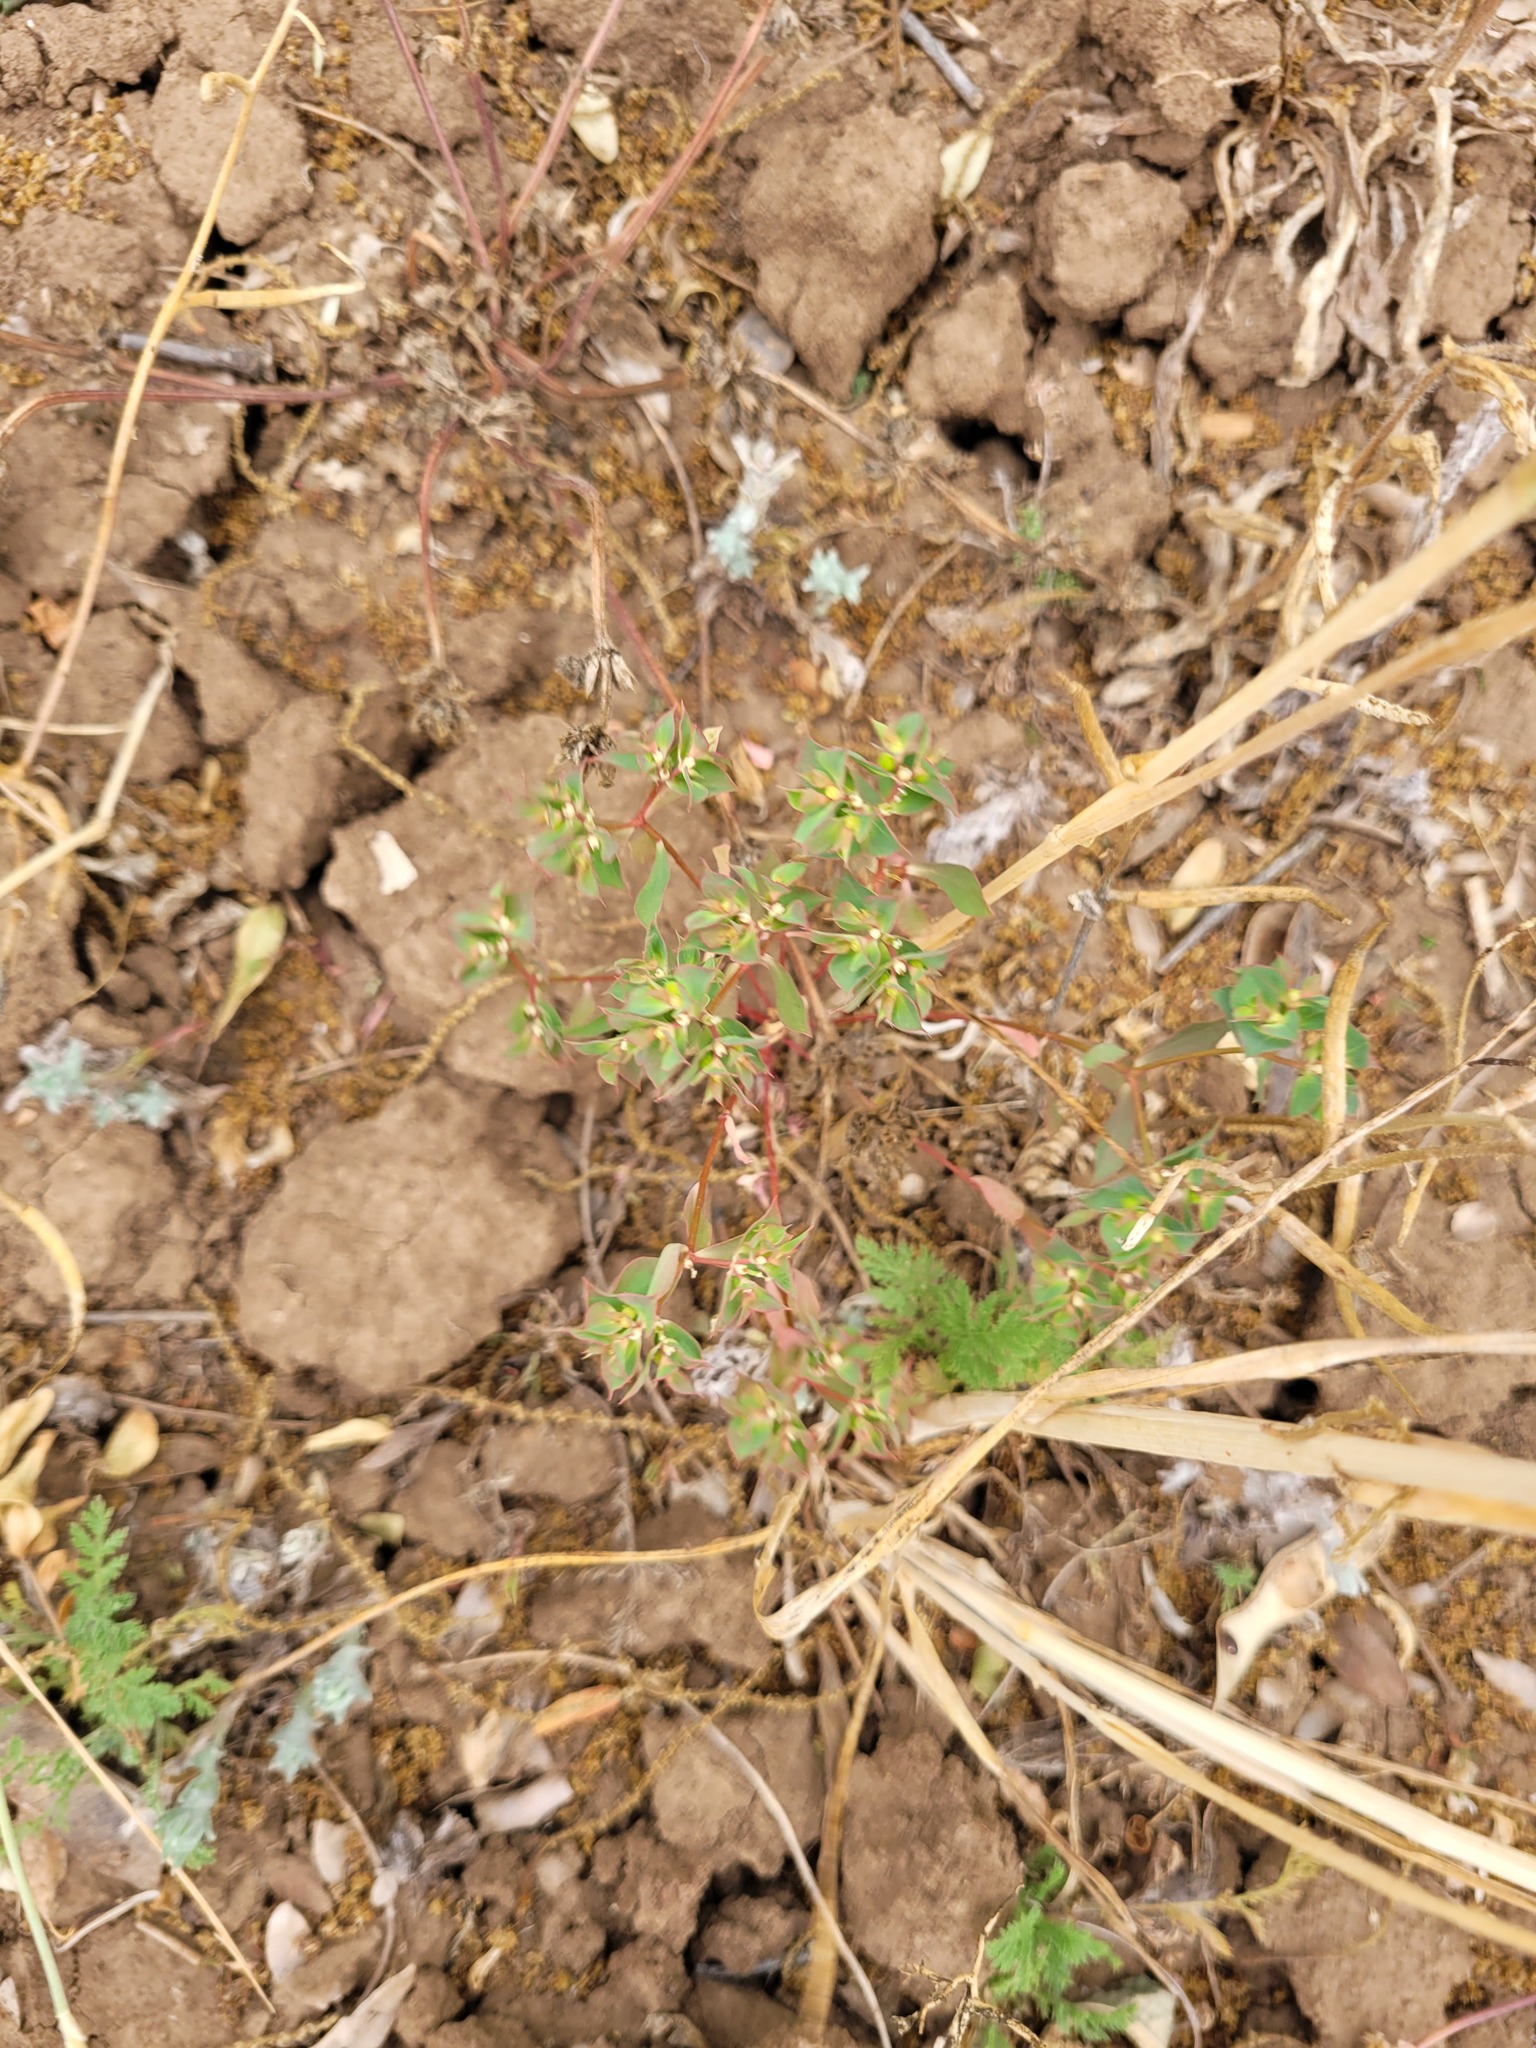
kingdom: Plantae
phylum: Tracheophyta
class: Magnoliopsida
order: Malpighiales
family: Euphorbiaceae
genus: Euphorbia
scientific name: Euphorbia falcata
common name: Sickle spurge
